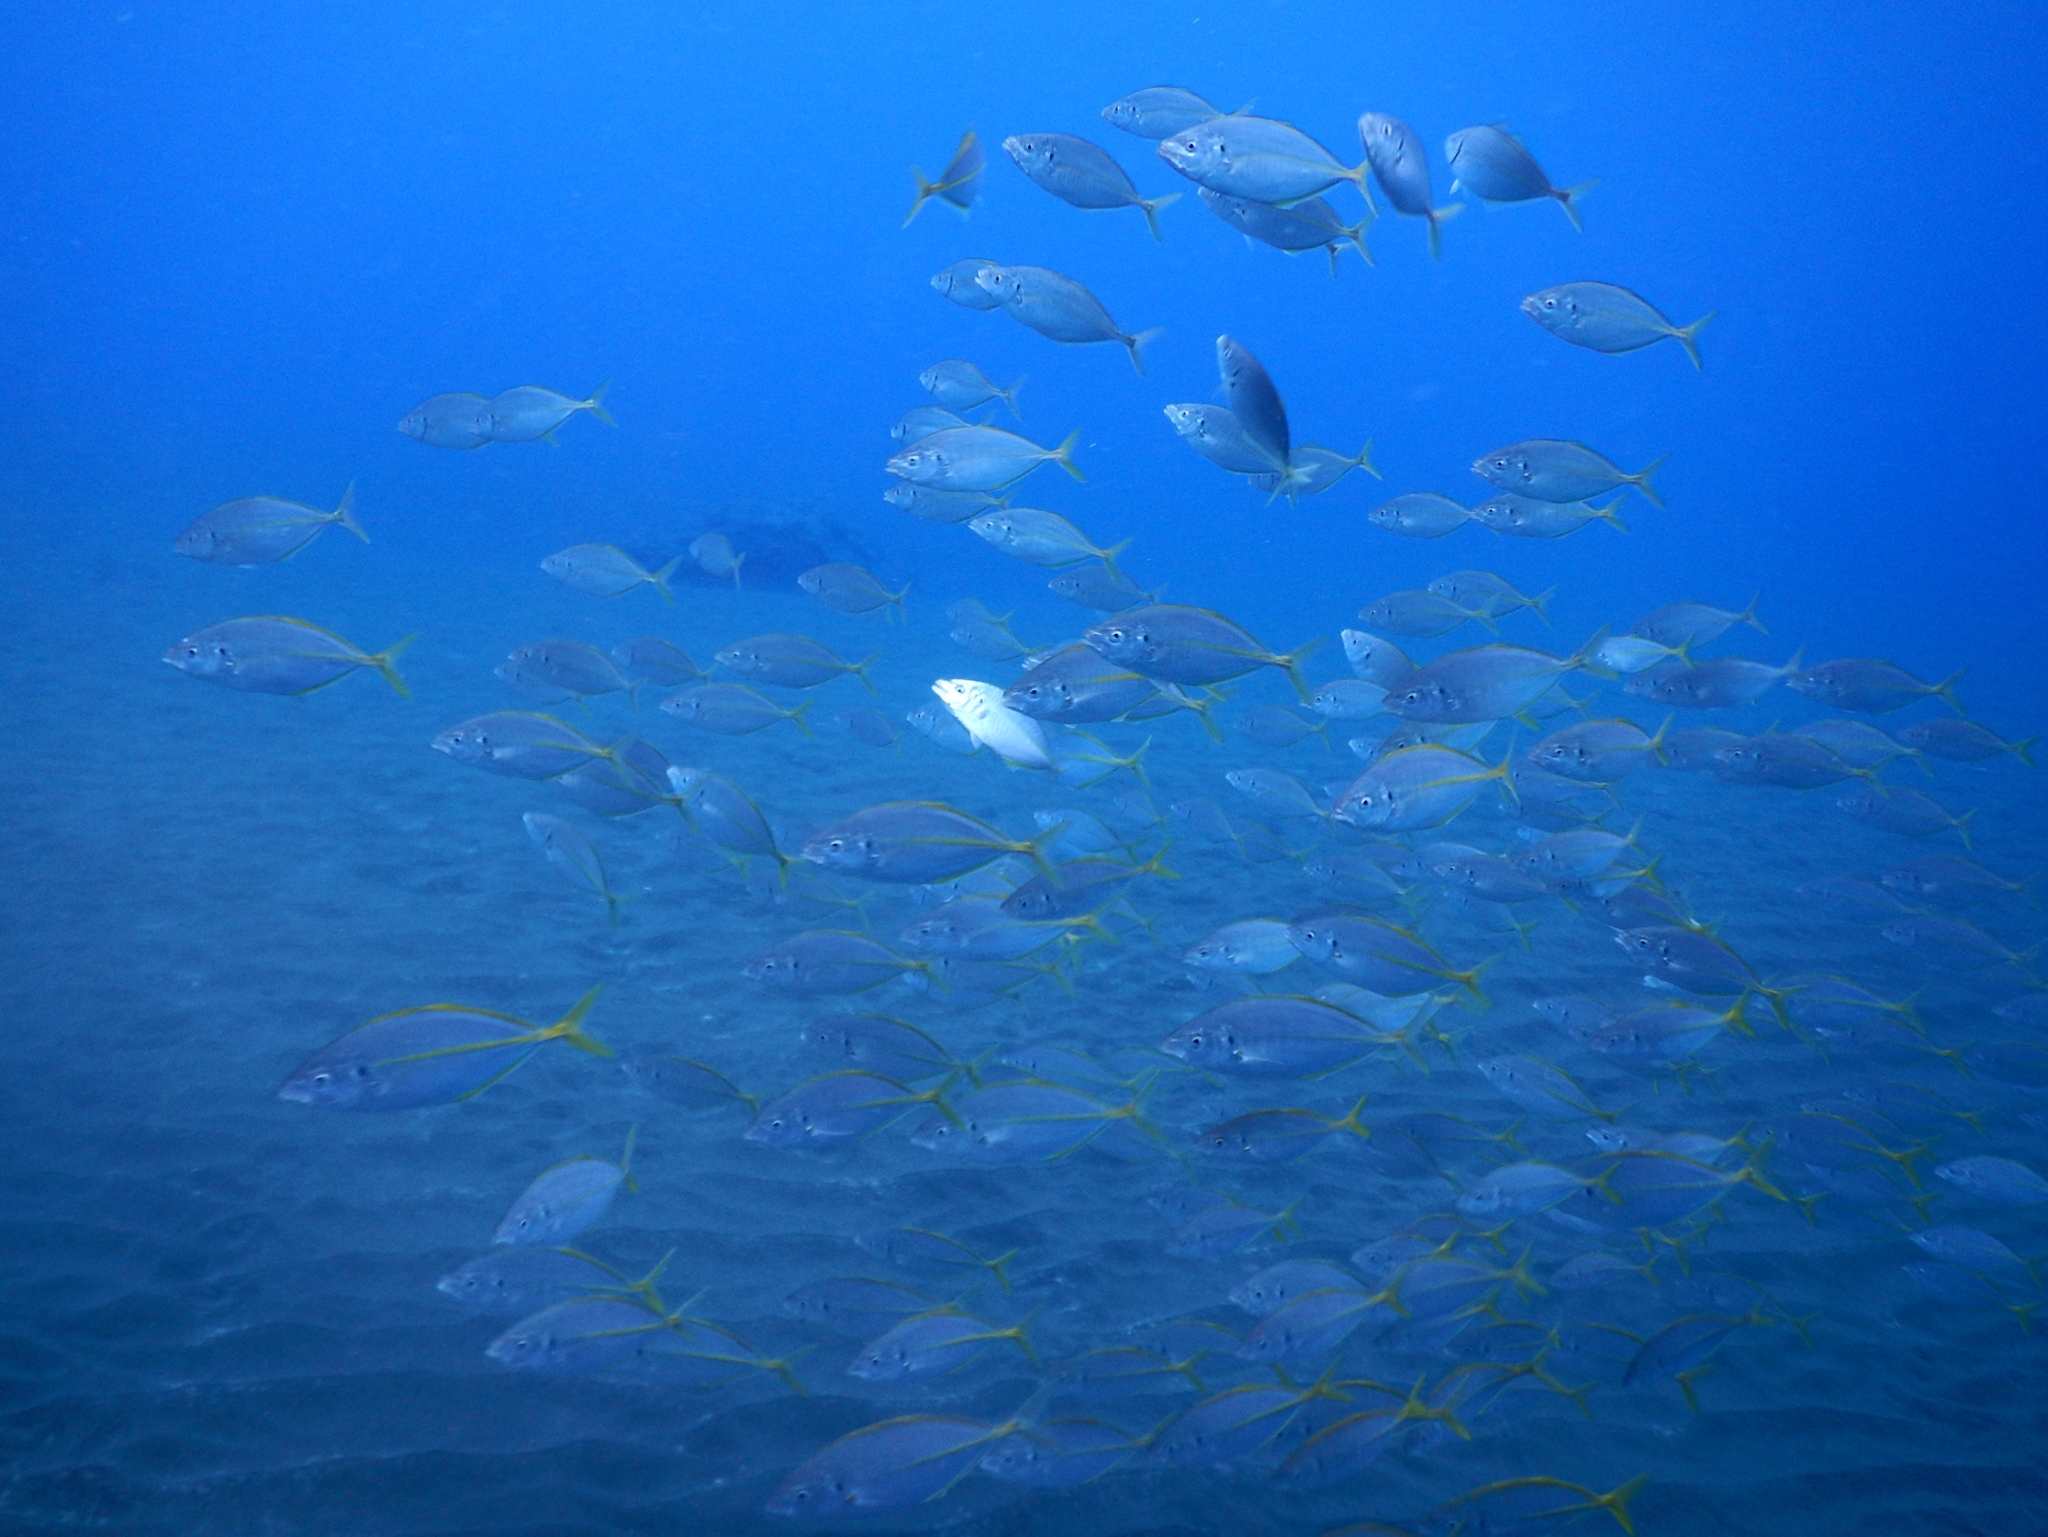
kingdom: Animalia
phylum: Chordata
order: Perciformes
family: Carangidae
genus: Pseudocaranx
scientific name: Pseudocaranx dentex
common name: White trevally
